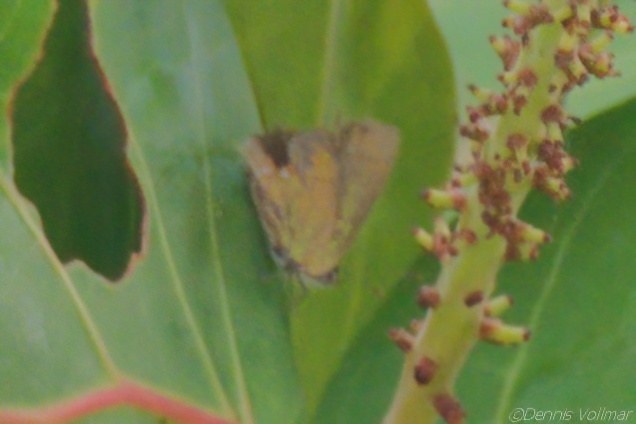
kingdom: Animalia
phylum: Arthropoda
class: Insecta
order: Lepidoptera
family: Lycaenidae
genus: Thecla
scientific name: Thecla maesites
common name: Verde azul hairstreak
